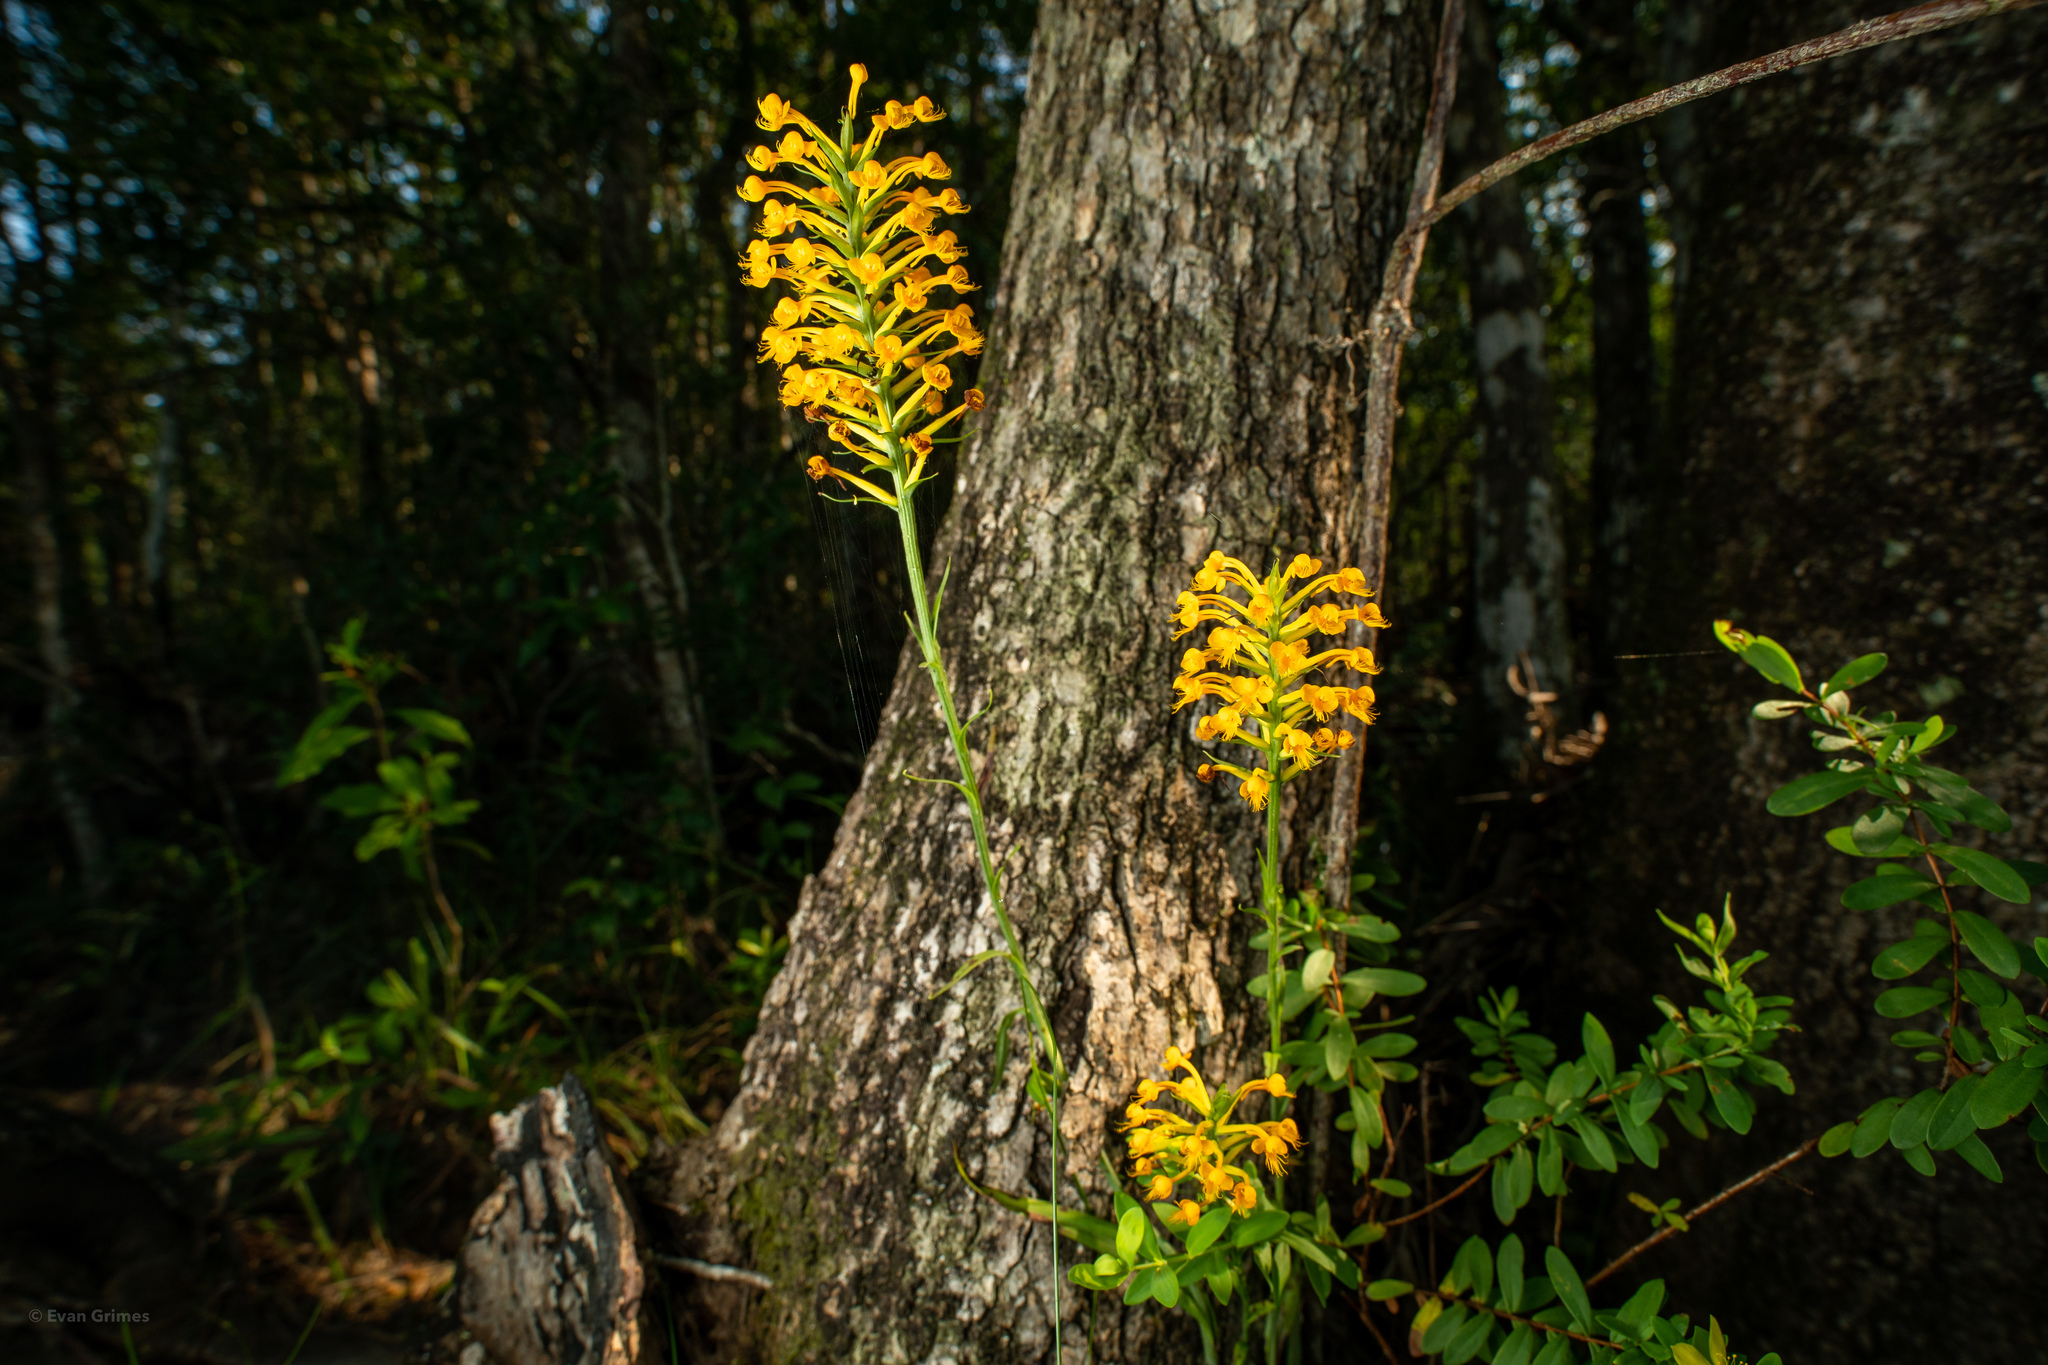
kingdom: Plantae
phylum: Tracheophyta
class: Liliopsida
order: Asparagales
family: Orchidaceae
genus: Platanthera
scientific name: Platanthera cristata
